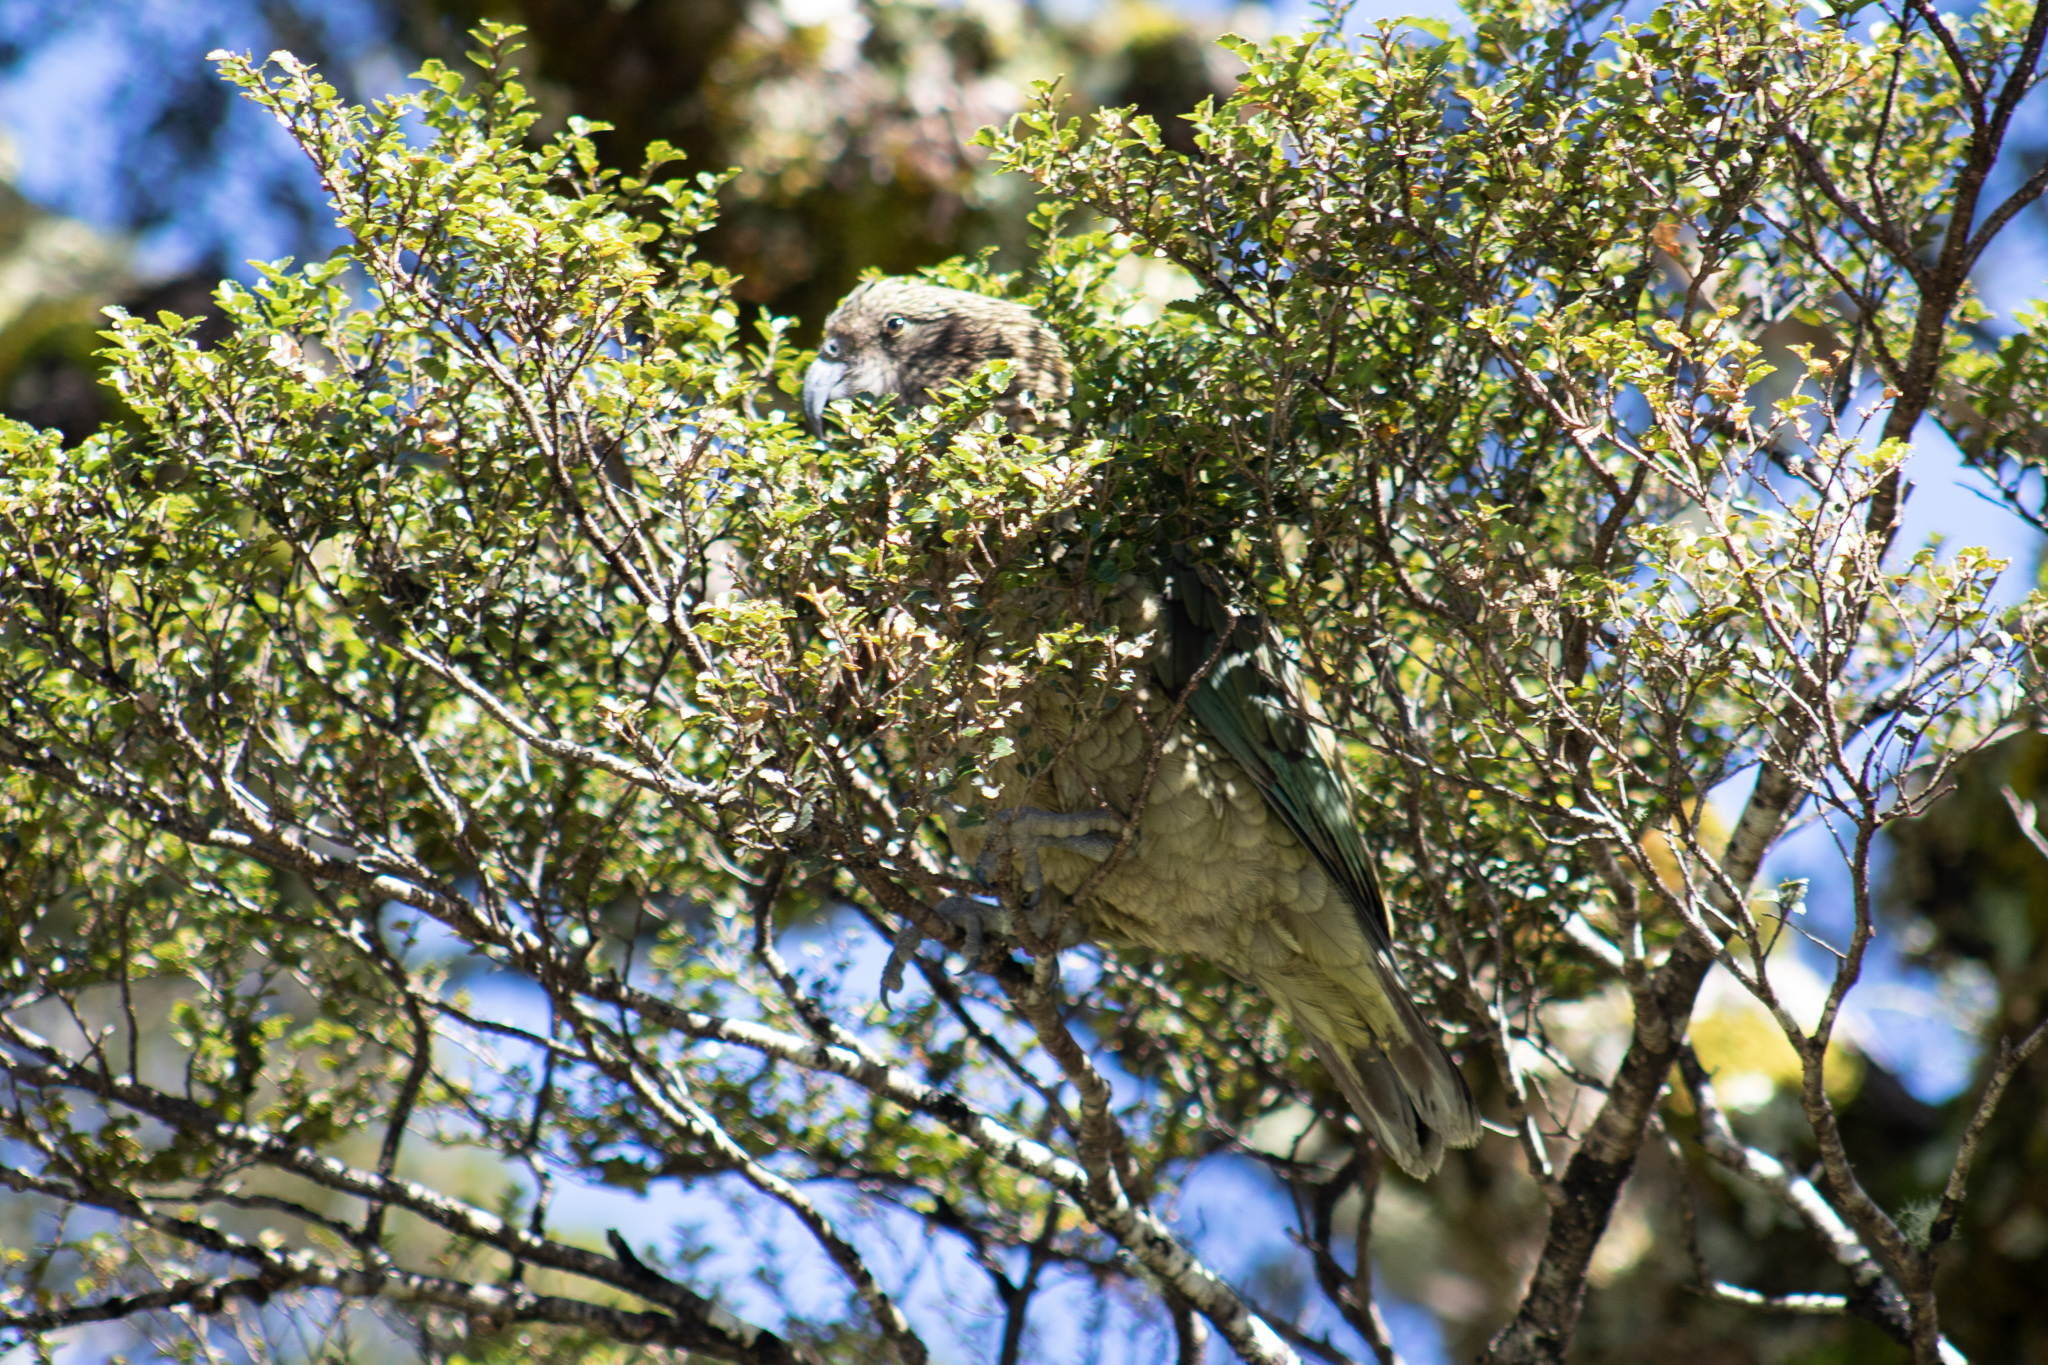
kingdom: Animalia
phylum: Chordata
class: Aves
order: Psittaciformes
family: Psittacidae
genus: Nestor
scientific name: Nestor notabilis
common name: Kea
